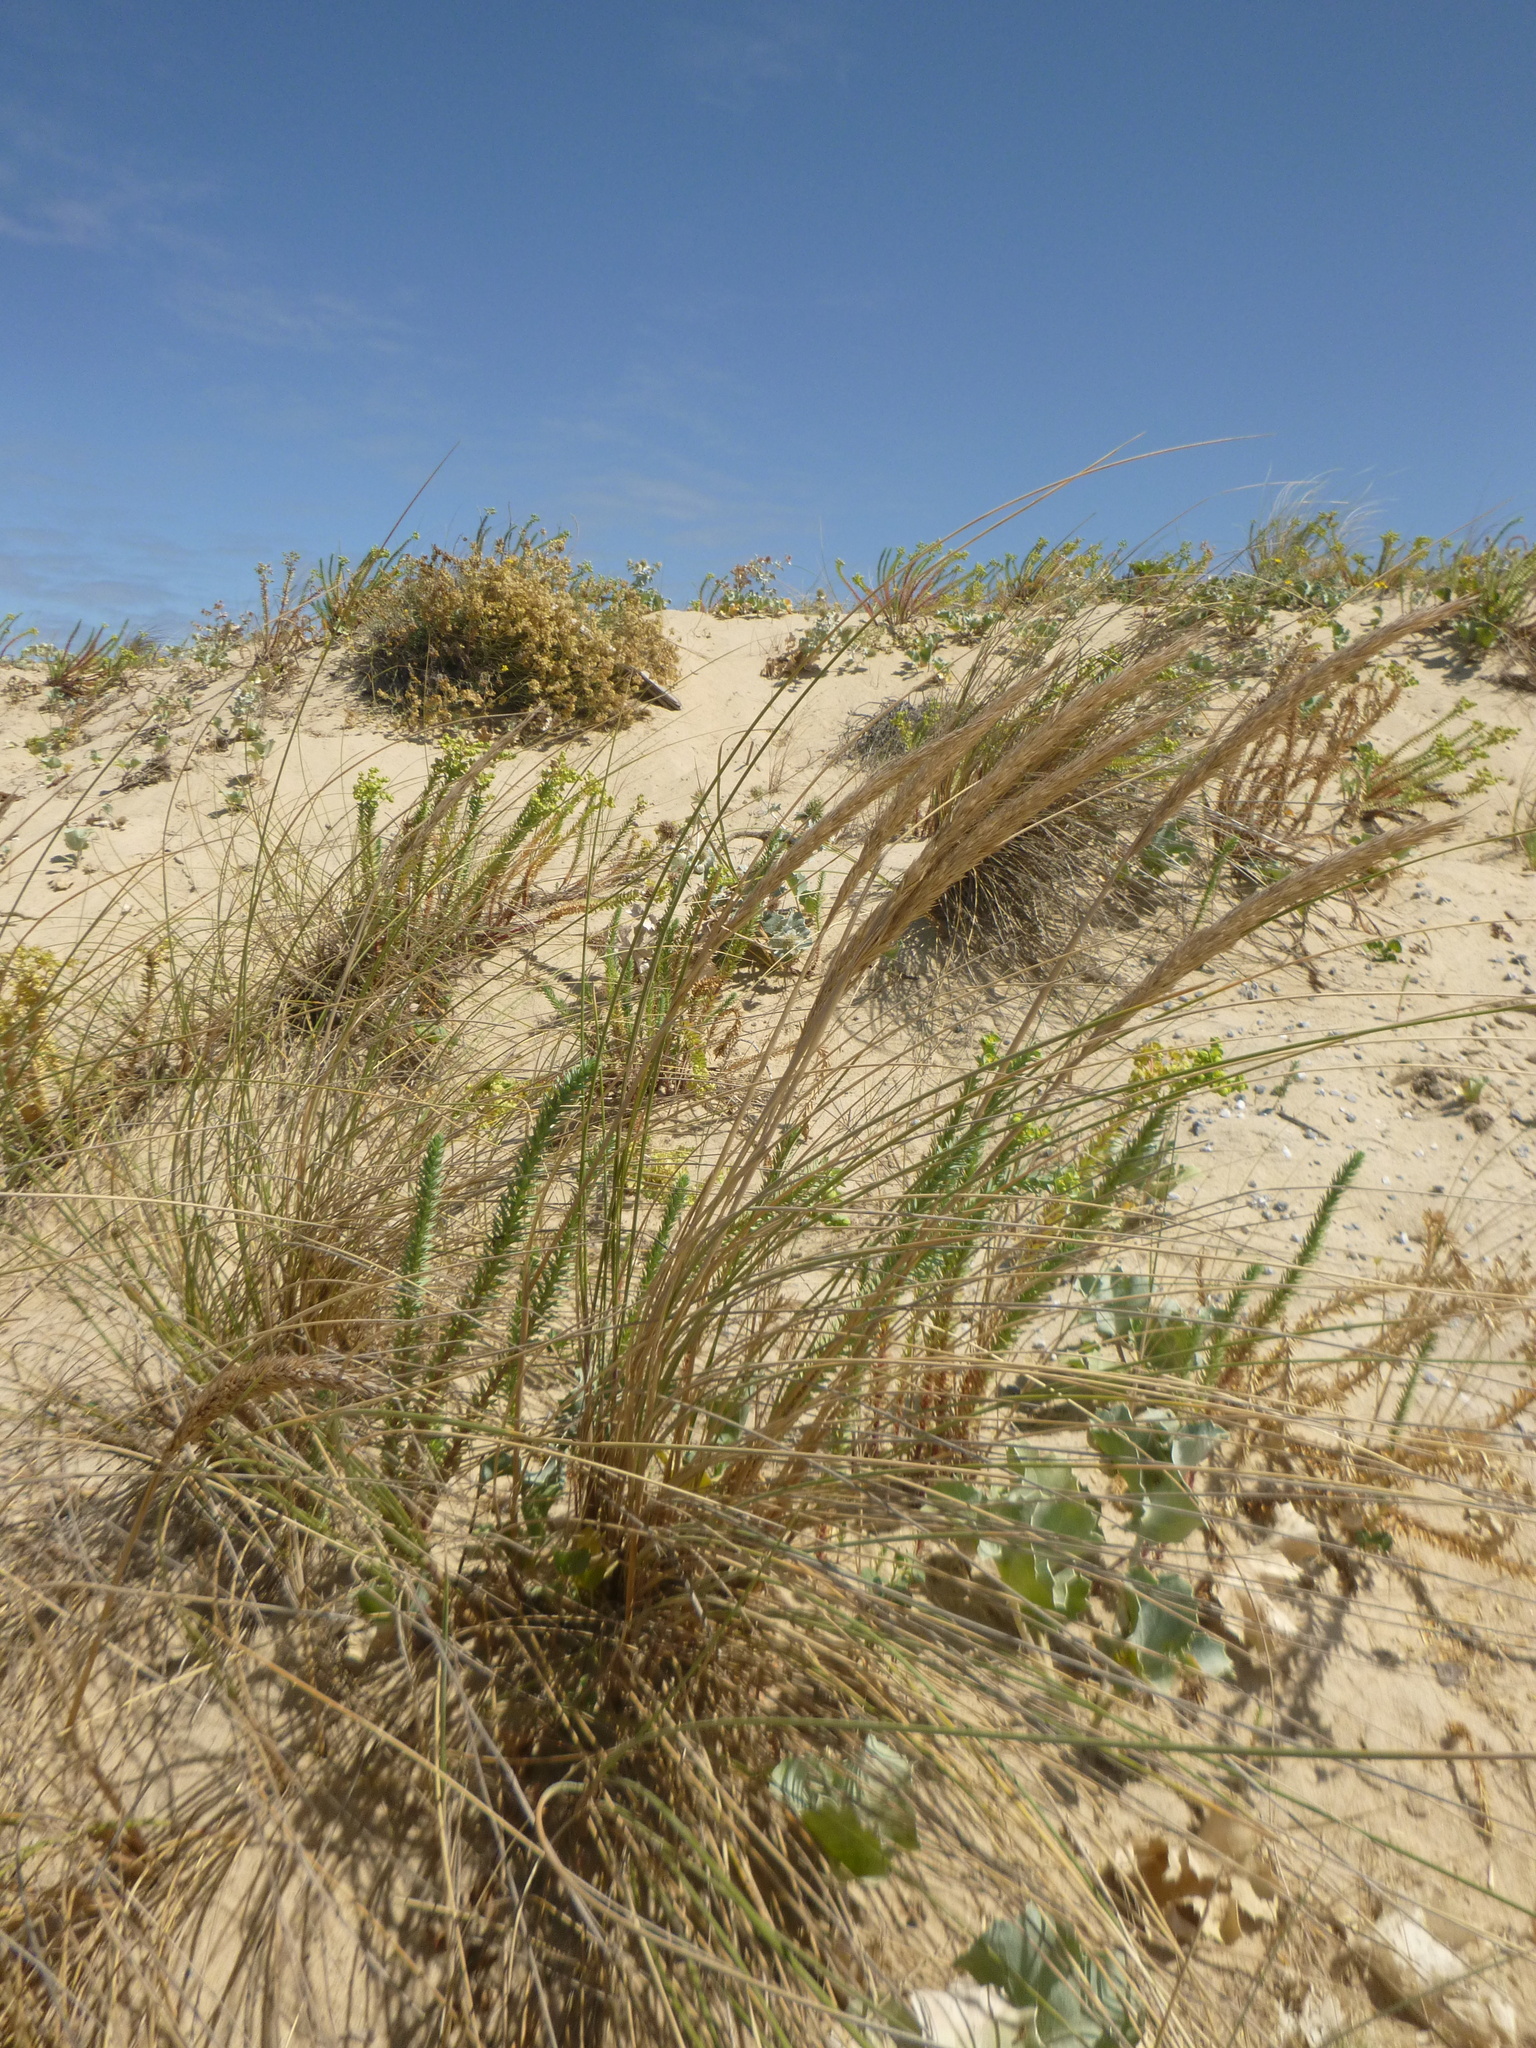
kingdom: Plantae
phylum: Tracheophyta
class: Liliopsida
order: Poales
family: Poaceae
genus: Calamagrostis
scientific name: Calamagrostis arenaria
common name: European beachgrass
